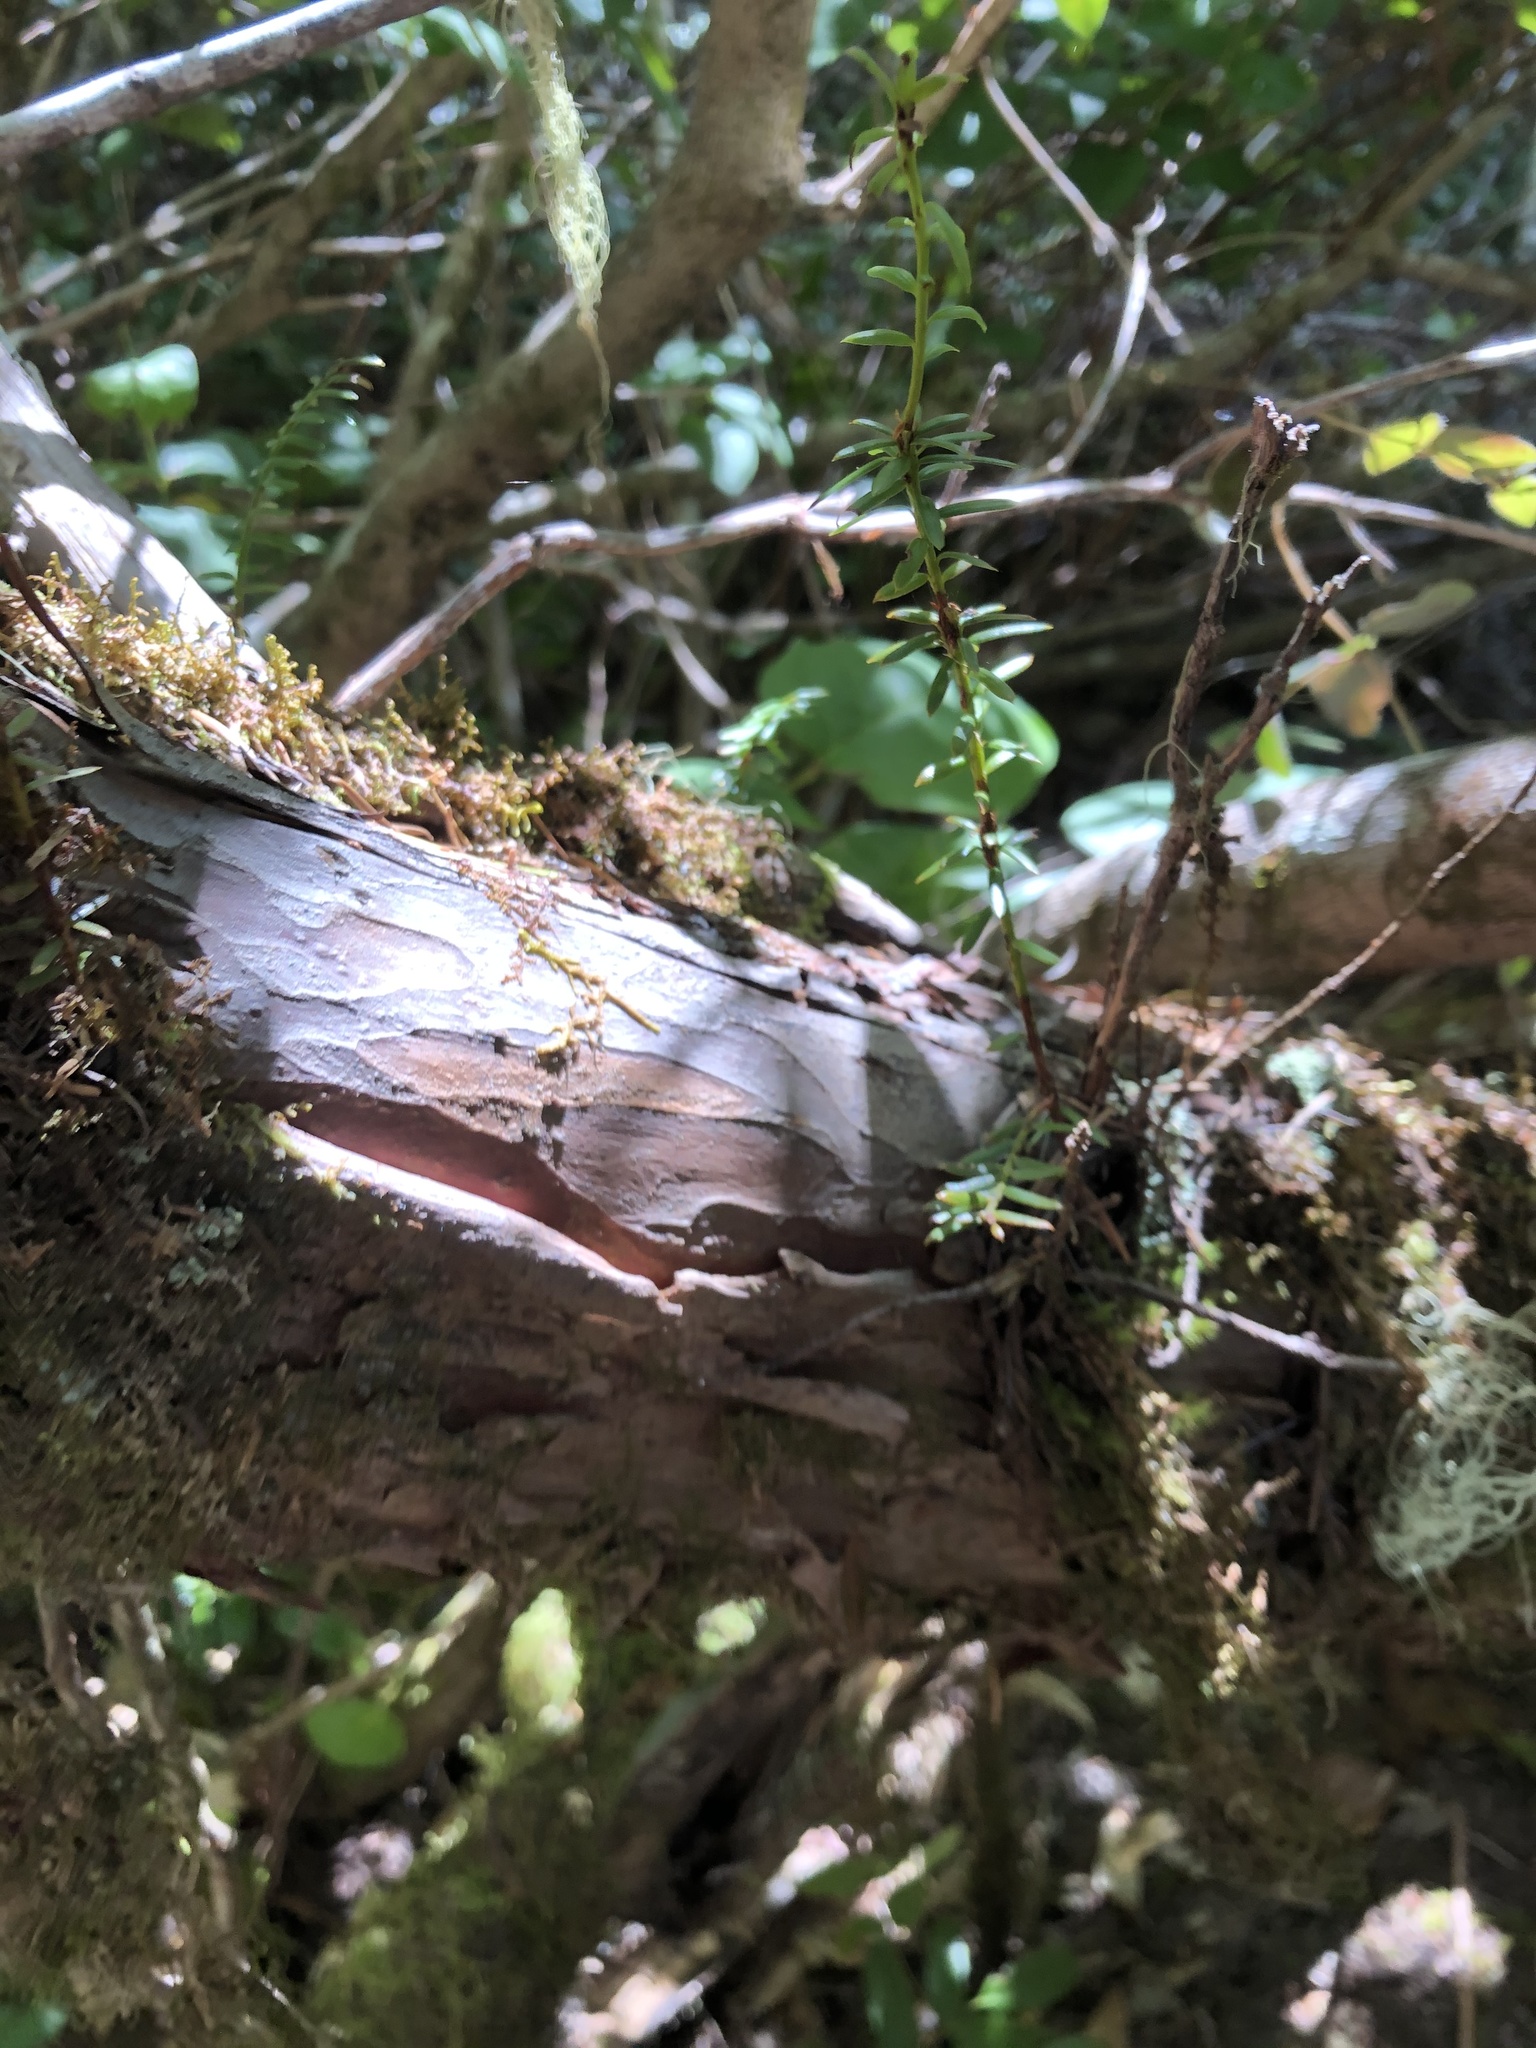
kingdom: Plantae
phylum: Tracheophyta
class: Pinopsida
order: Pinales
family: Taxaceae
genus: Taxus
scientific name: Taxus brevifolia
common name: Pacific yew
